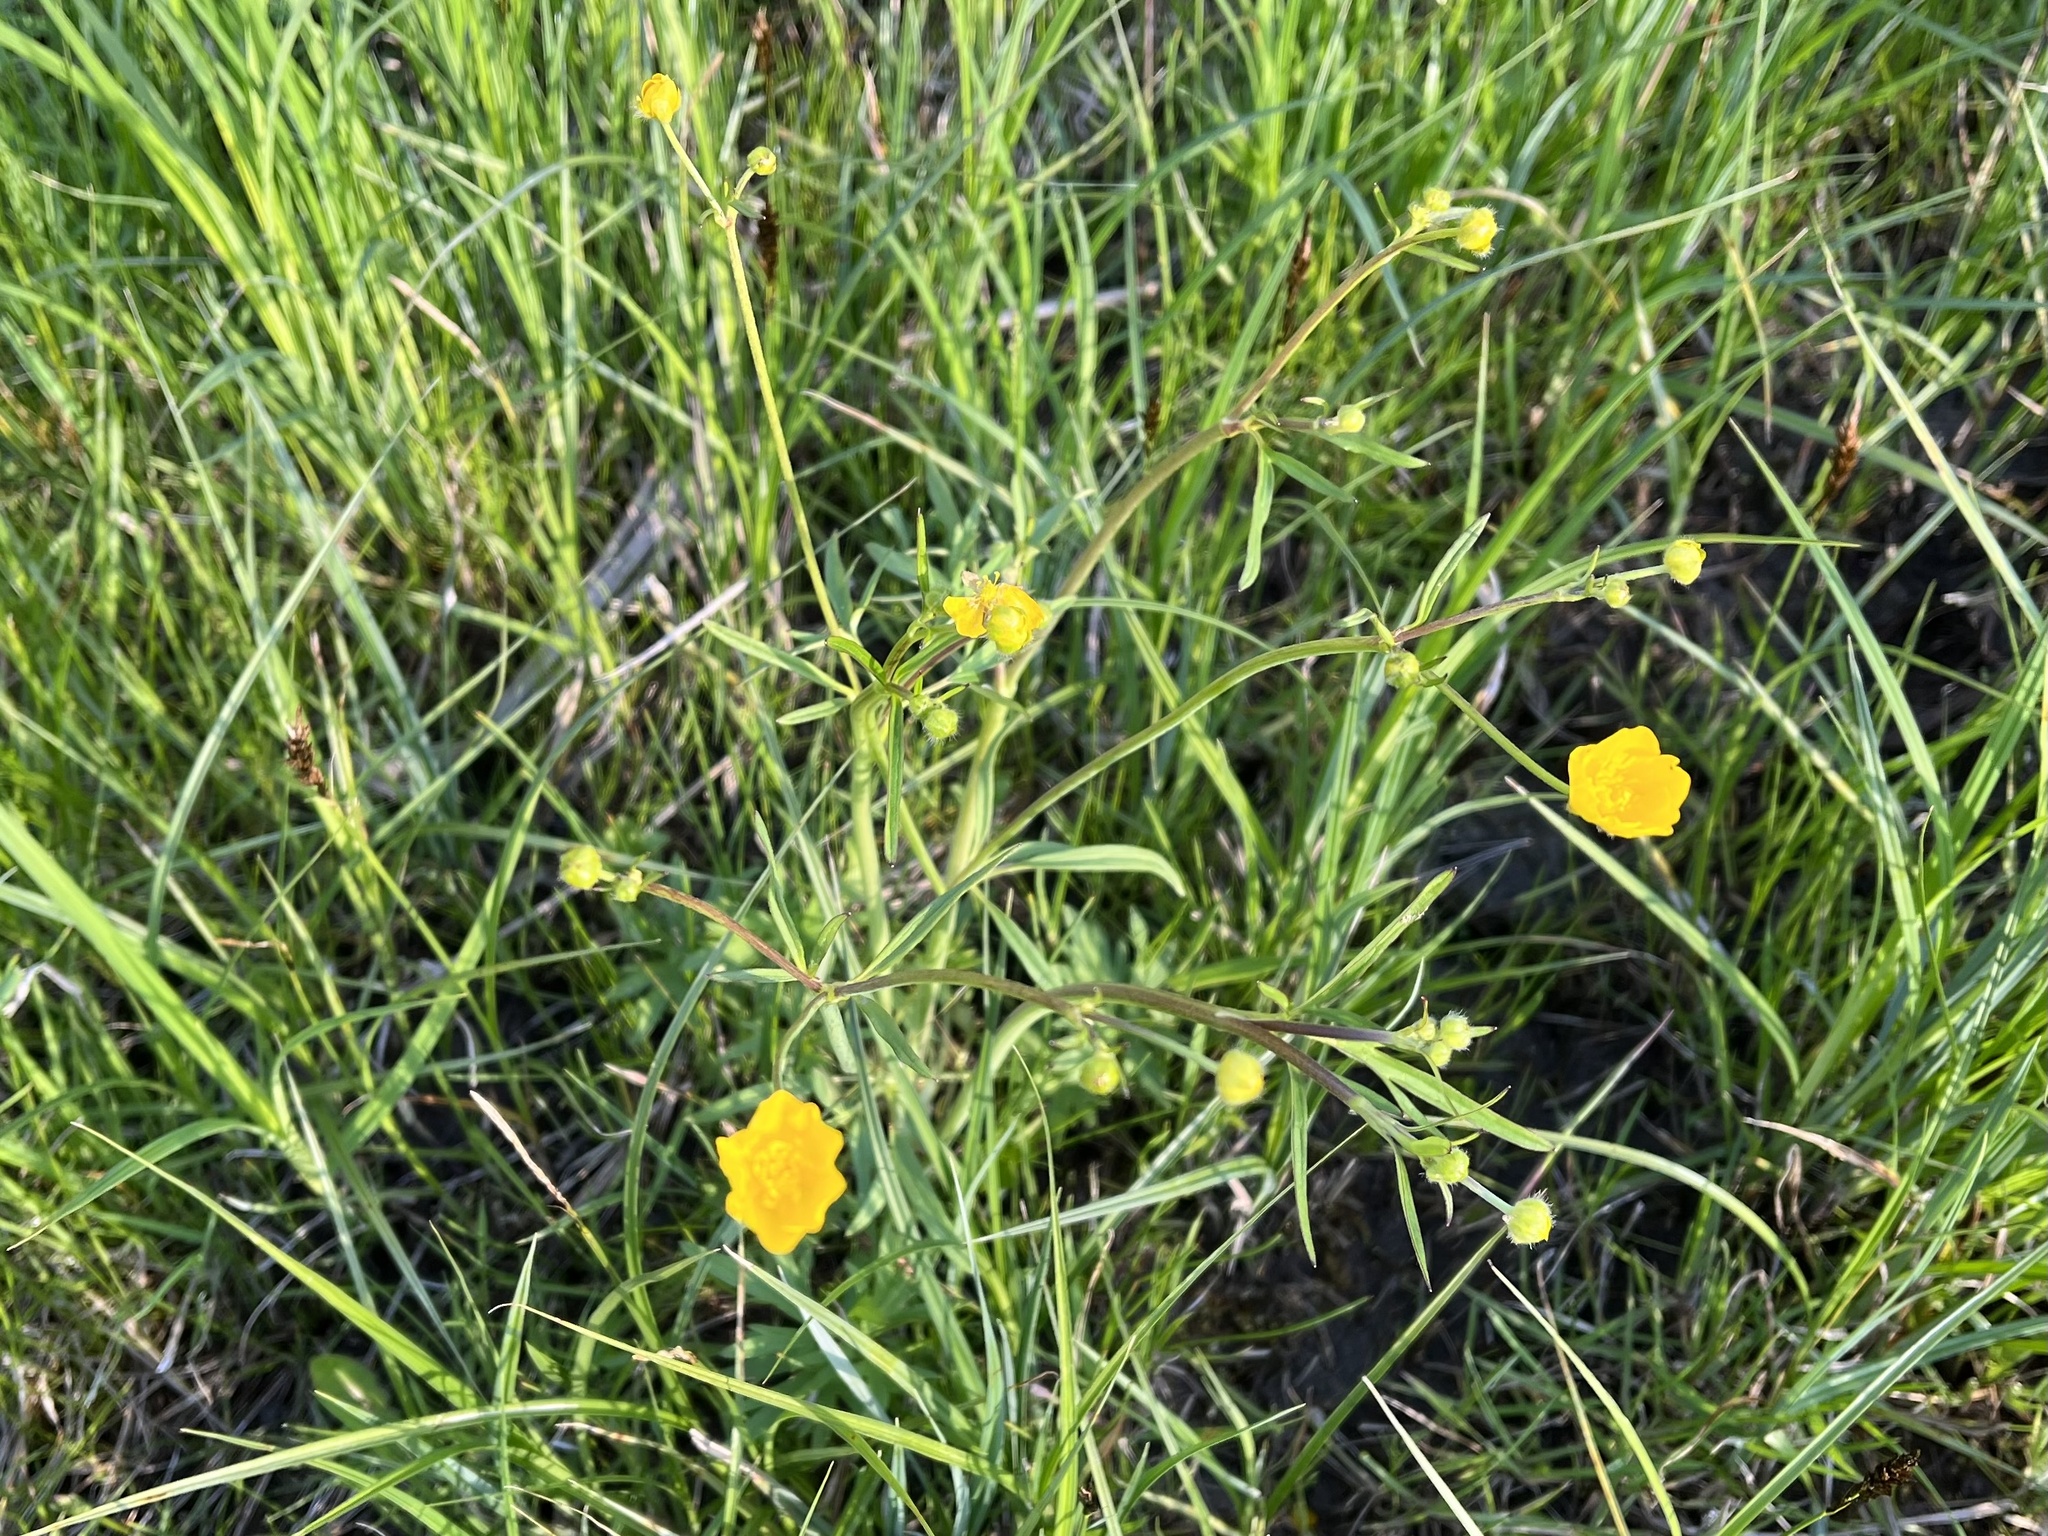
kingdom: Plantae
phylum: Tracheophyta
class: Magnoliopsida
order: Ranunculales
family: Ranunculaceae
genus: Ranunculus
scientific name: Ranunculus acris
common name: Meadow buttercup
